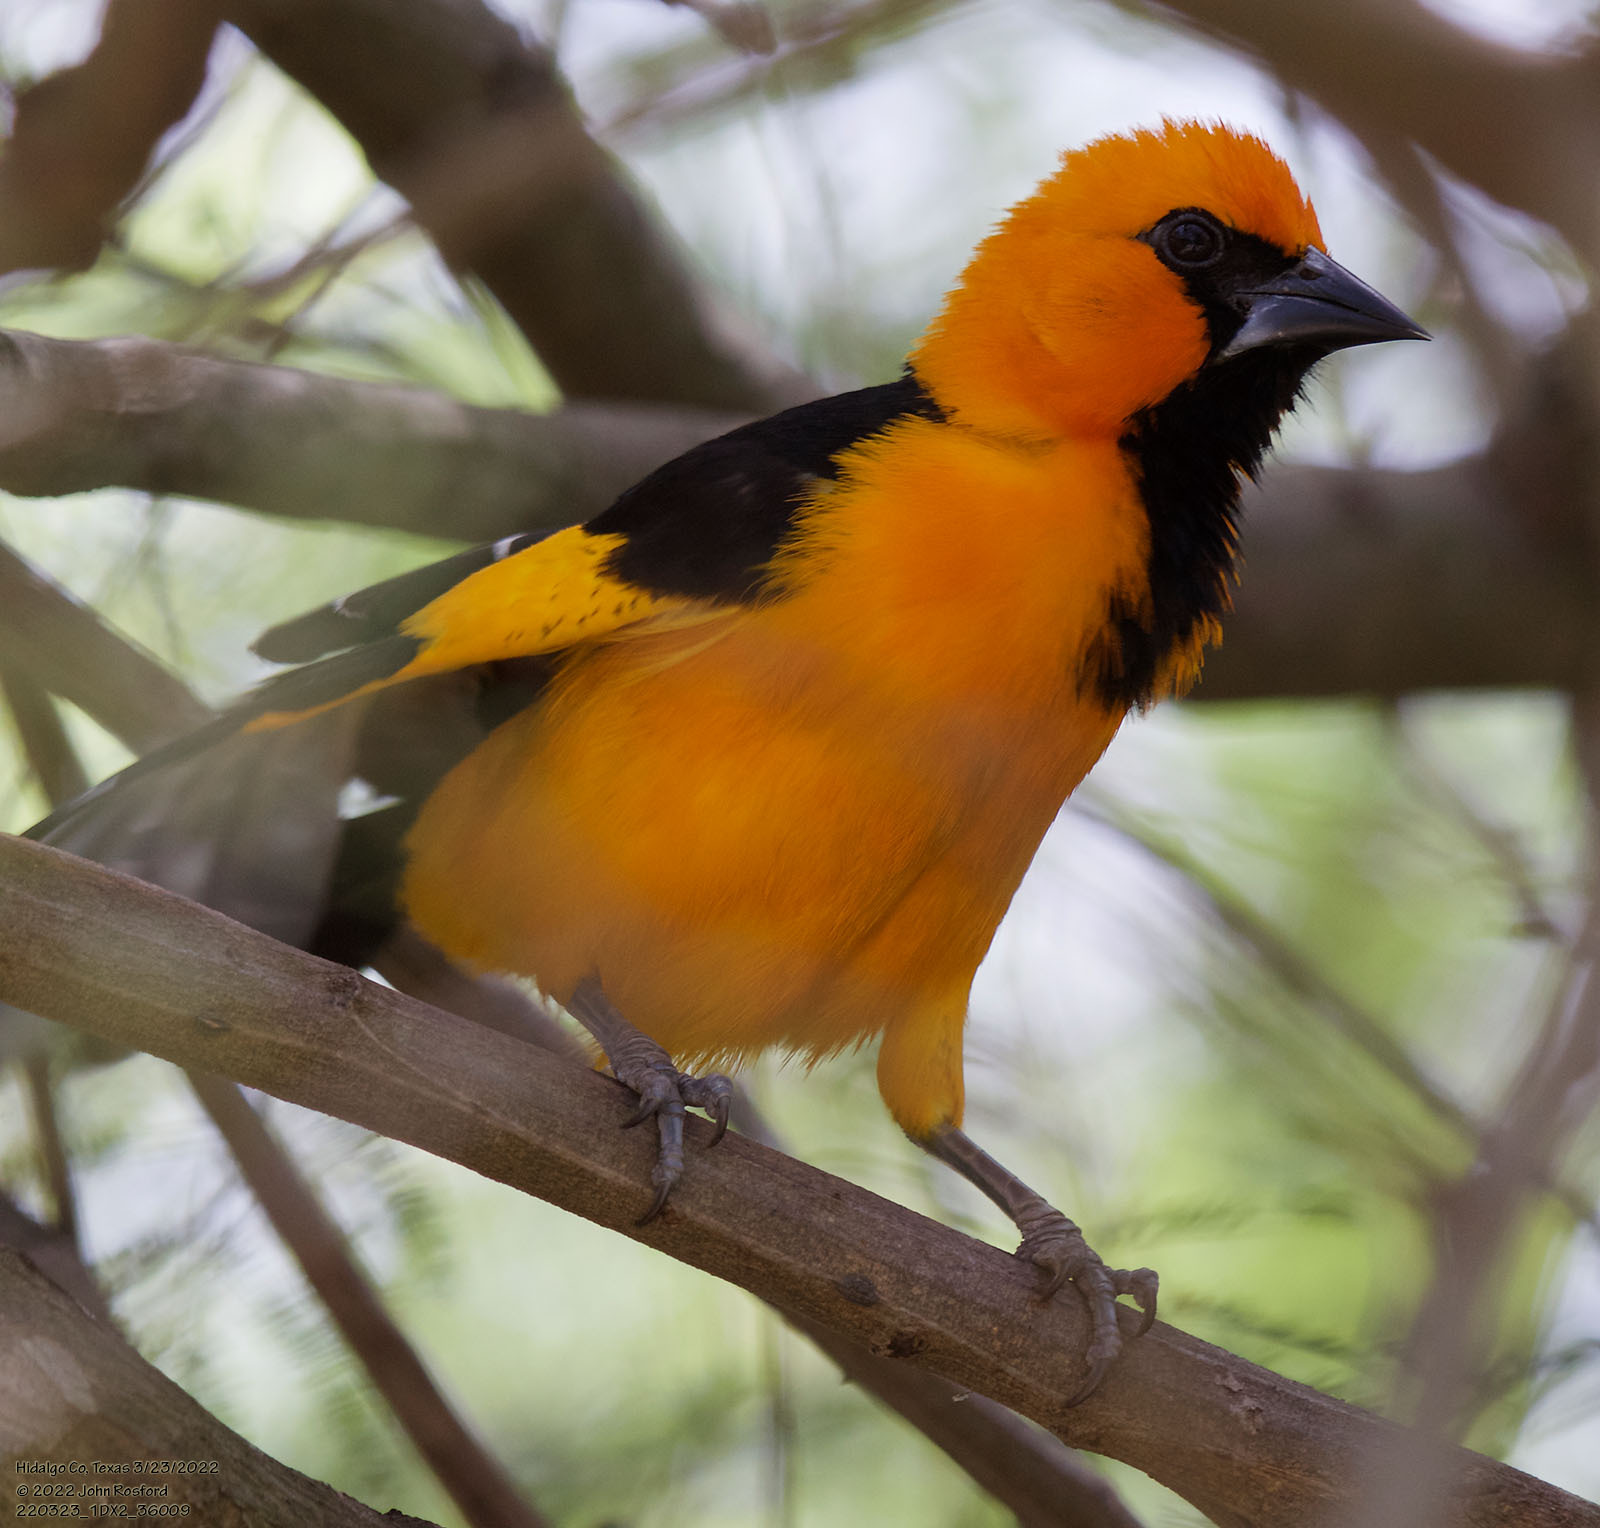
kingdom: Animalia
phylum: Chordata
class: Aves
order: Passeriformes
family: Icteridae
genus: Icterus
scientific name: Icterus gularis
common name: Altamira oriole
